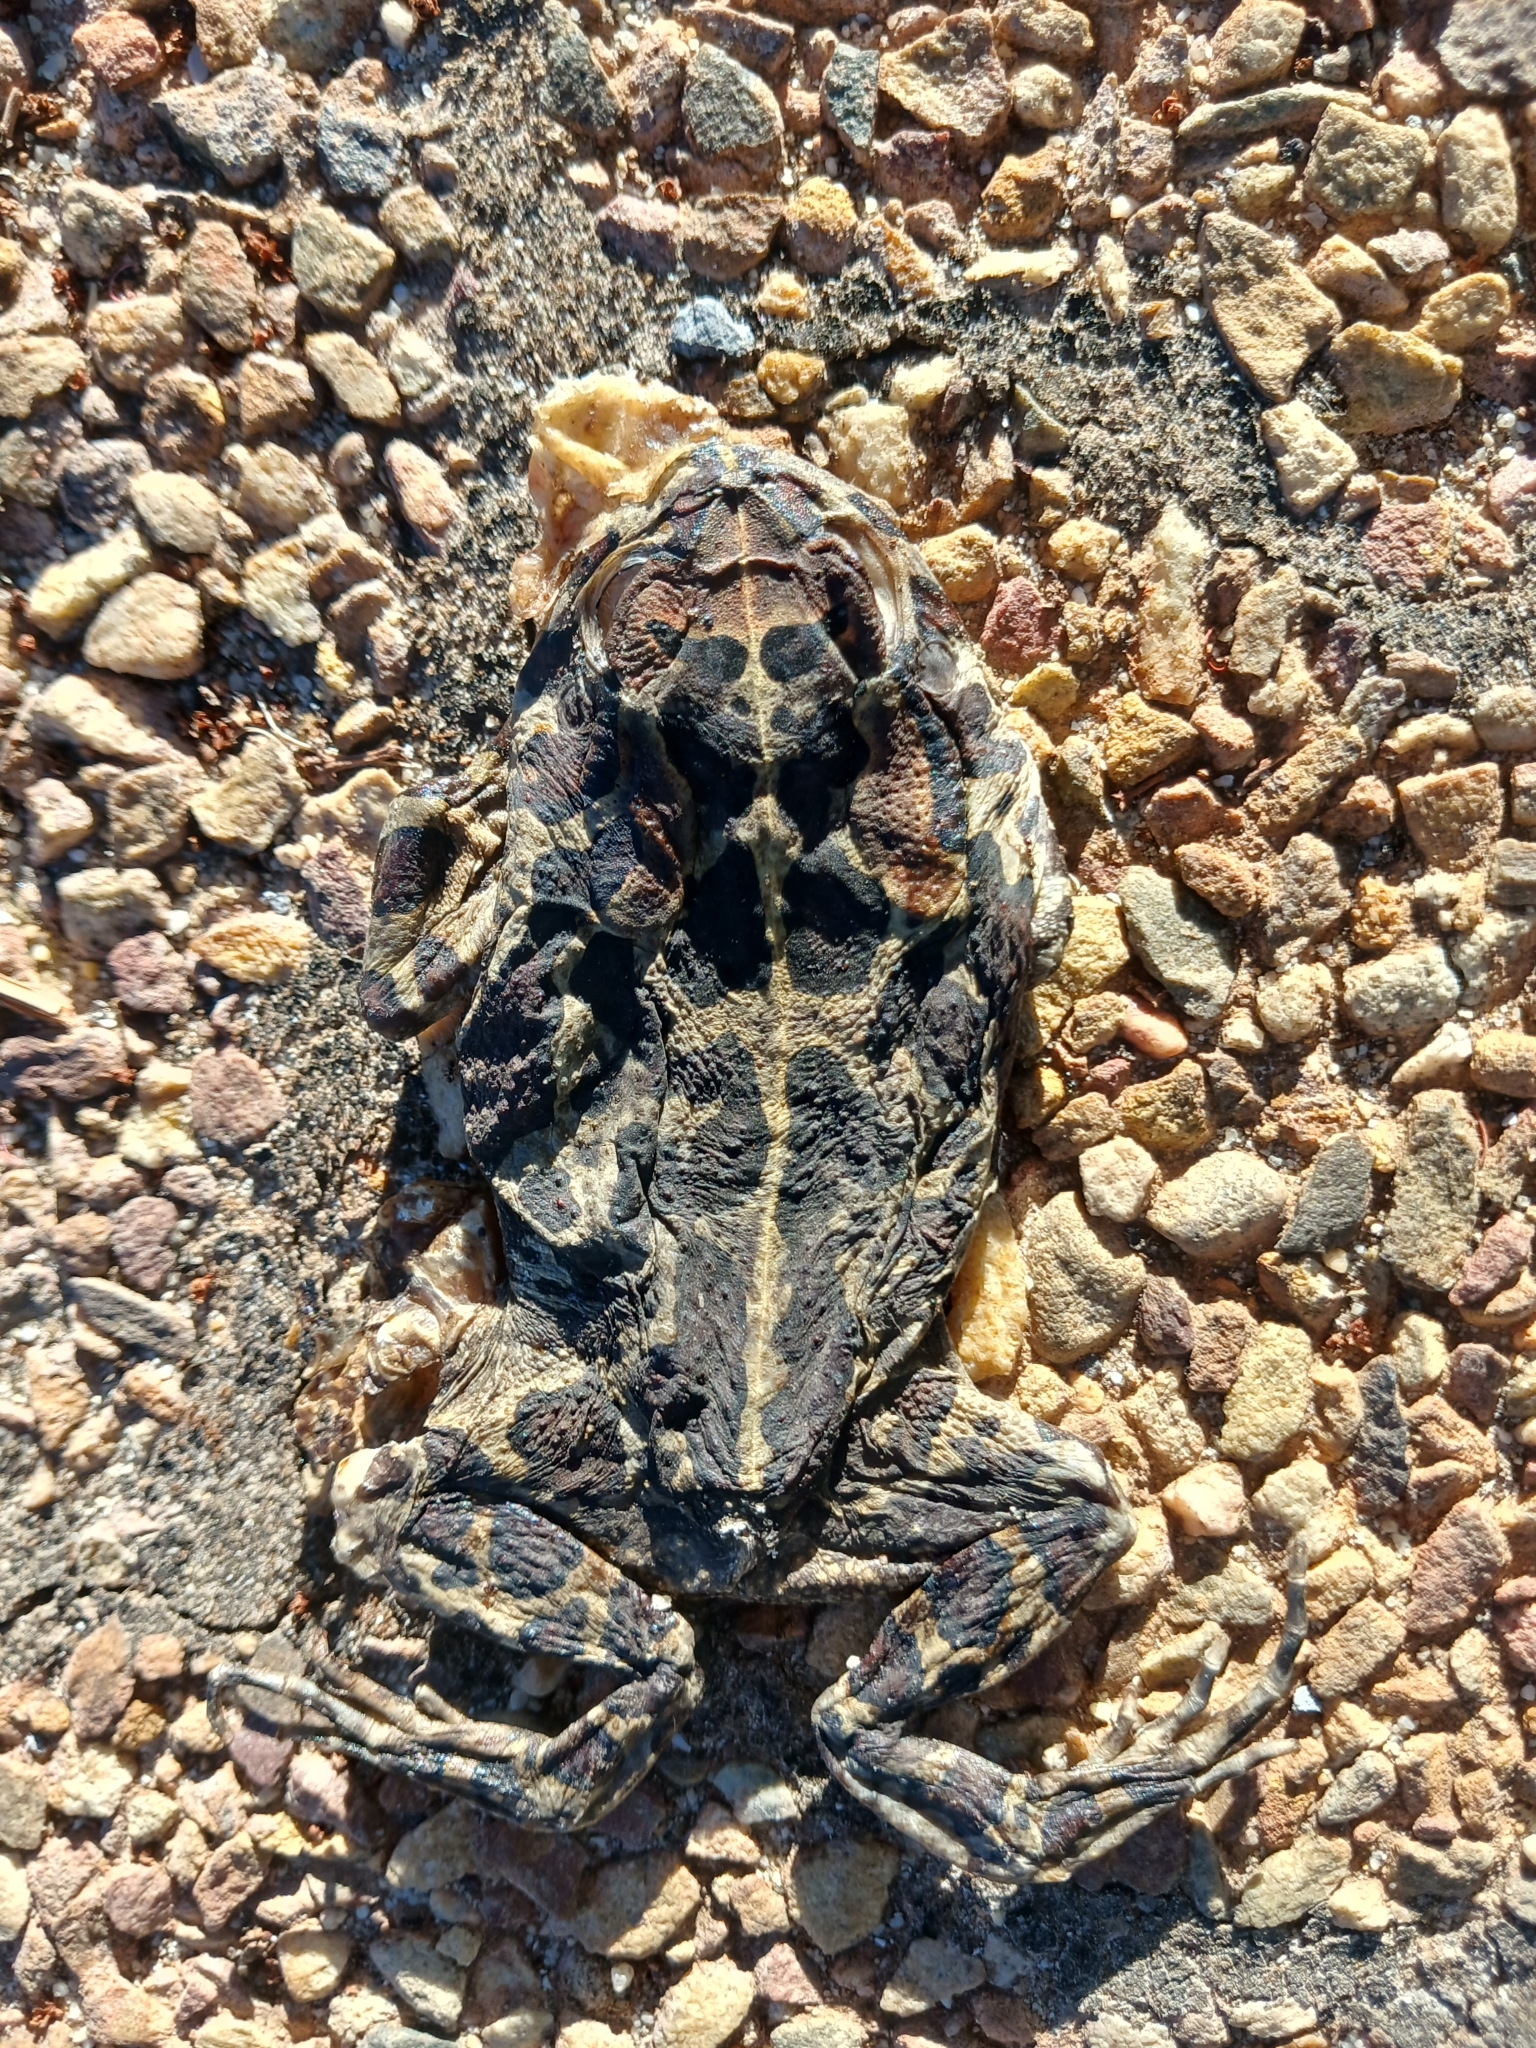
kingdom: Animalia
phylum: Chordata
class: Amphibia
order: Anura
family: Bufonidae
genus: Sclerophrys
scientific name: Sclerophrys pantherina
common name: Panther toad
